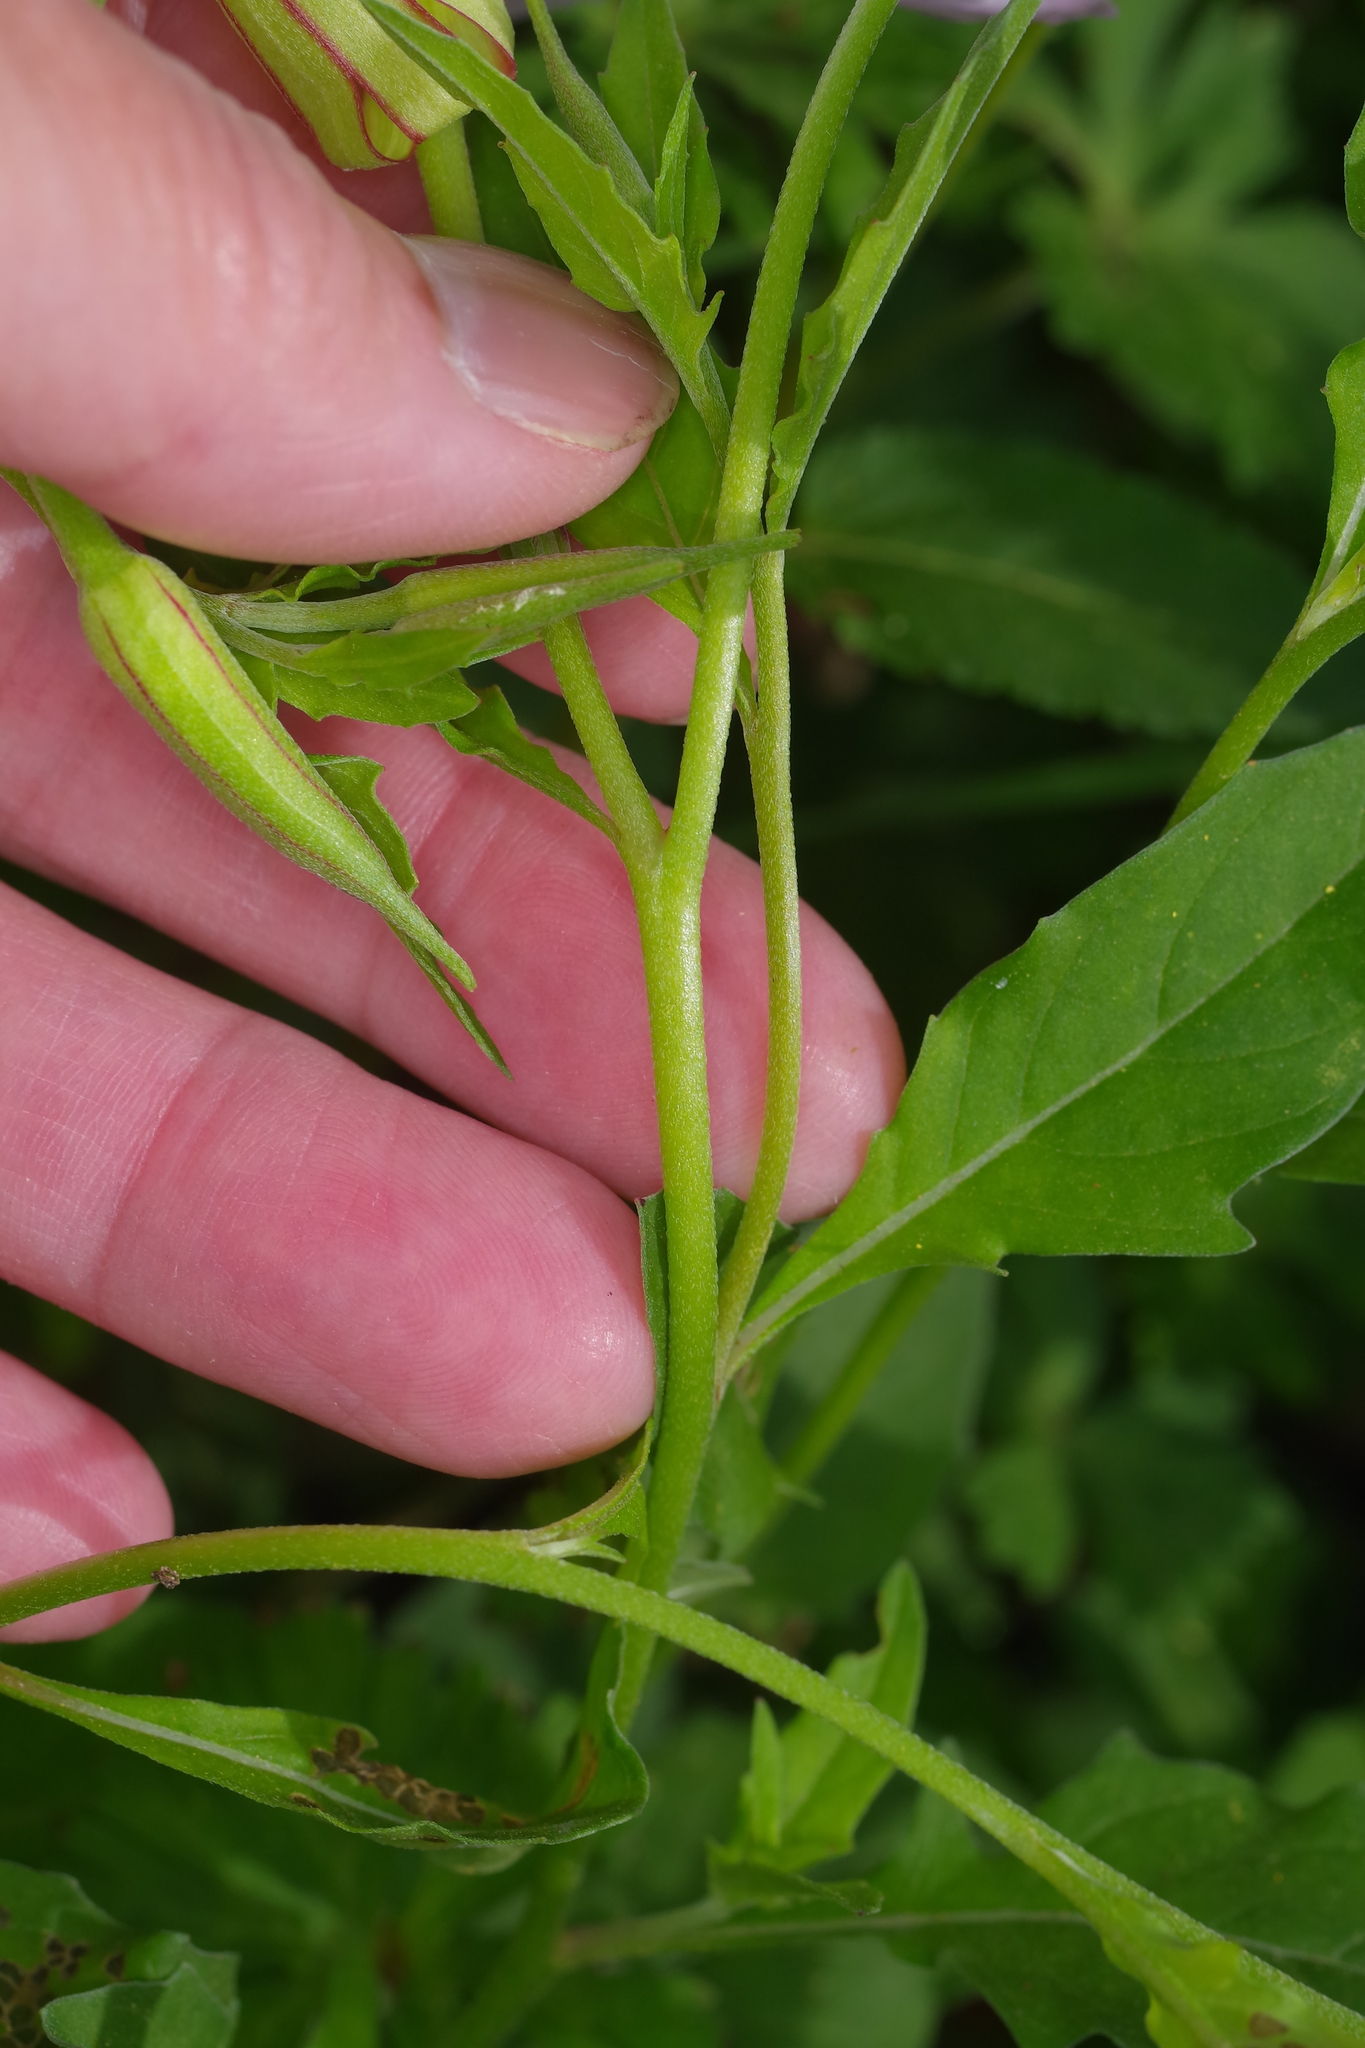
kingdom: Plantae
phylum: Tracheophyta
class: Magnoliopsida
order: Myrtales
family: Onagraceae
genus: Oenothera
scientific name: Oenothera speciosa
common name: White evening-primrose
